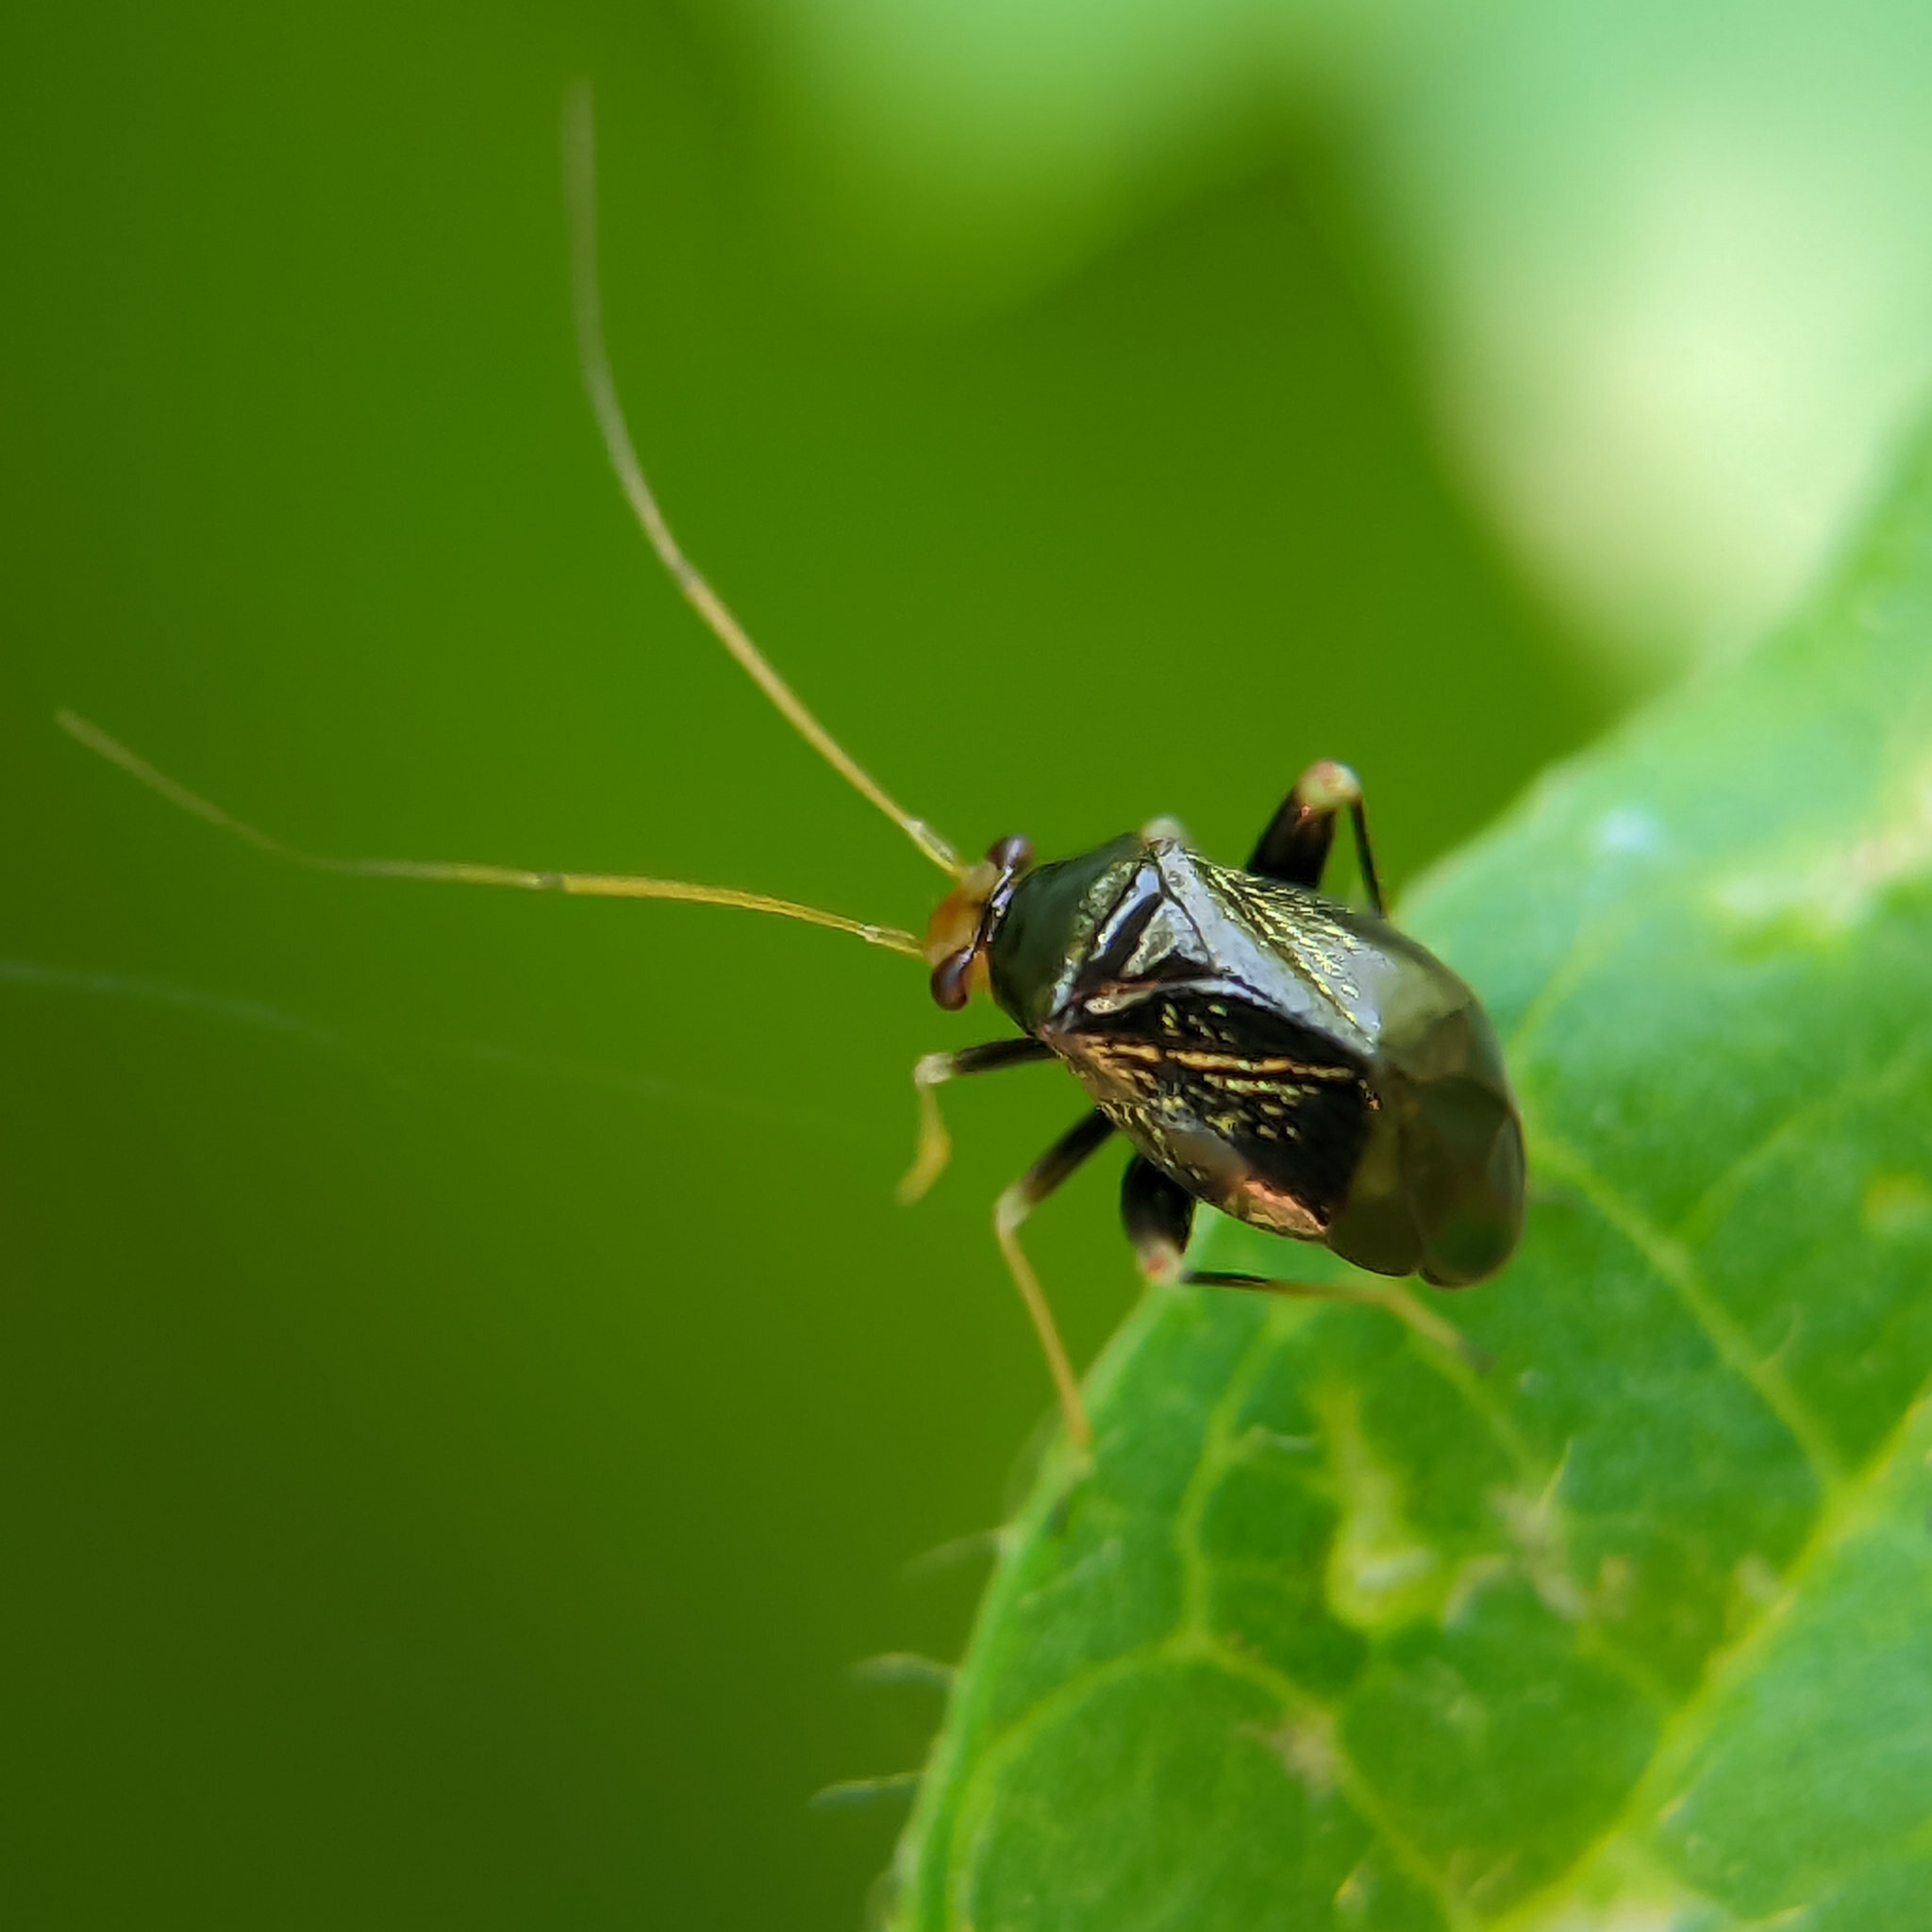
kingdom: Animalia
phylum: Arthropoda
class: Insecta
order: Hemiptera
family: Miridae
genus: Halticus
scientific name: Halticus luteicollis
